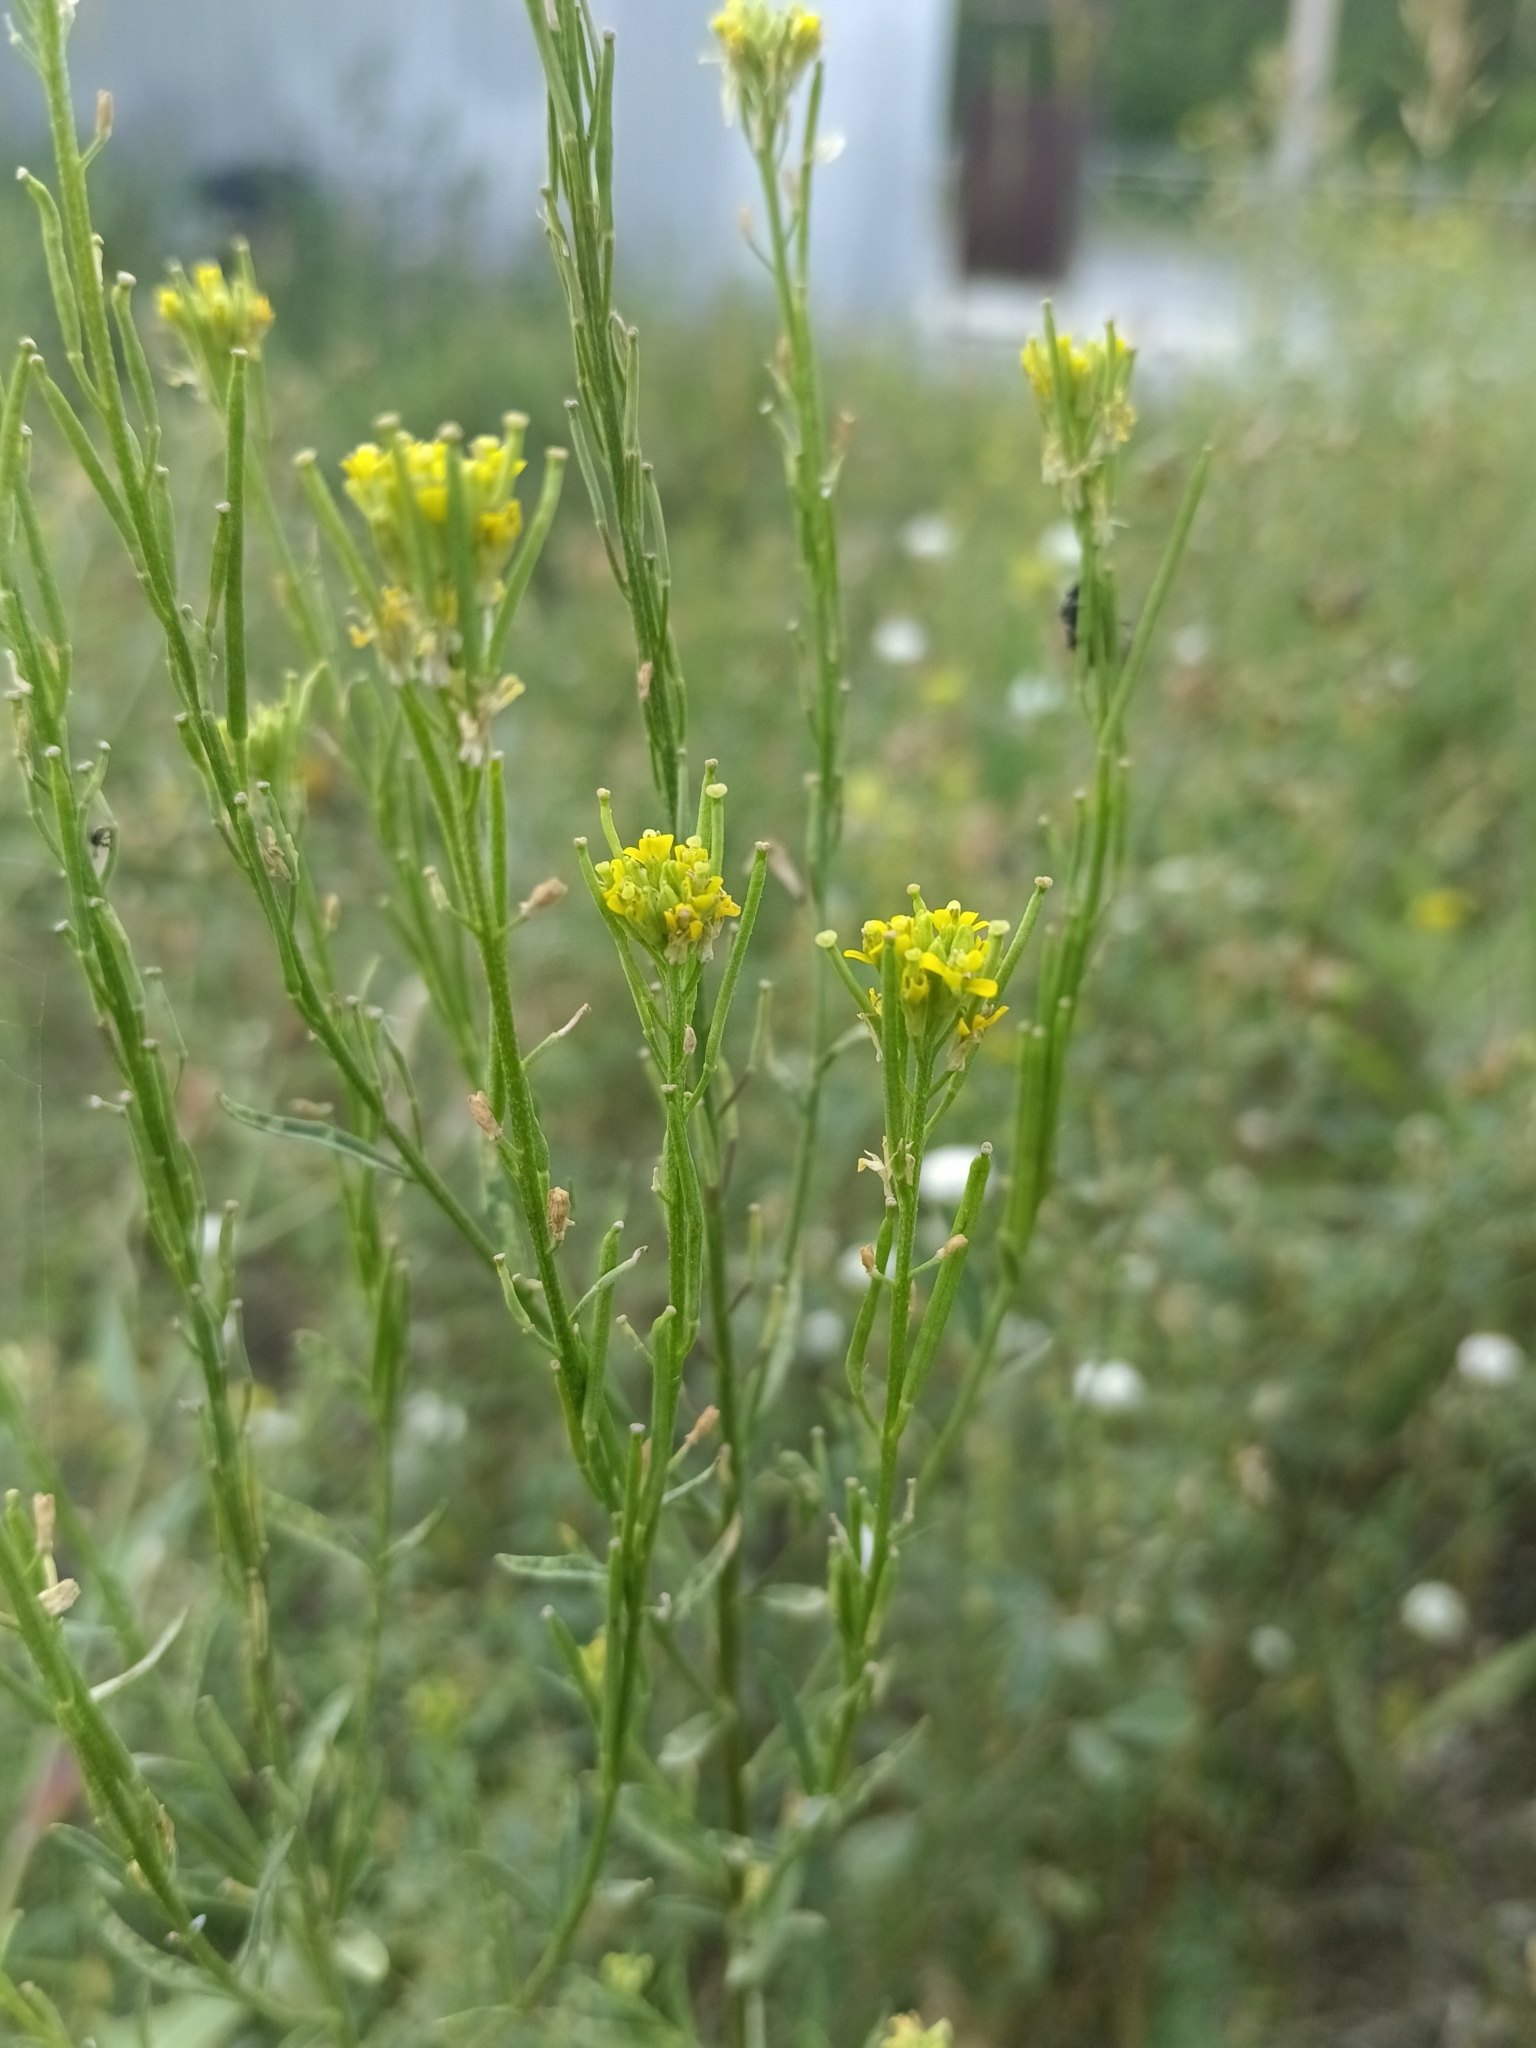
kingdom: Plantae
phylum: Tracheophyta
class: Magnoliopsida
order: Brassicales
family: Brassicaceae
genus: Erysimum
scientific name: Erysimum hieraciifolium
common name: European wallflower
